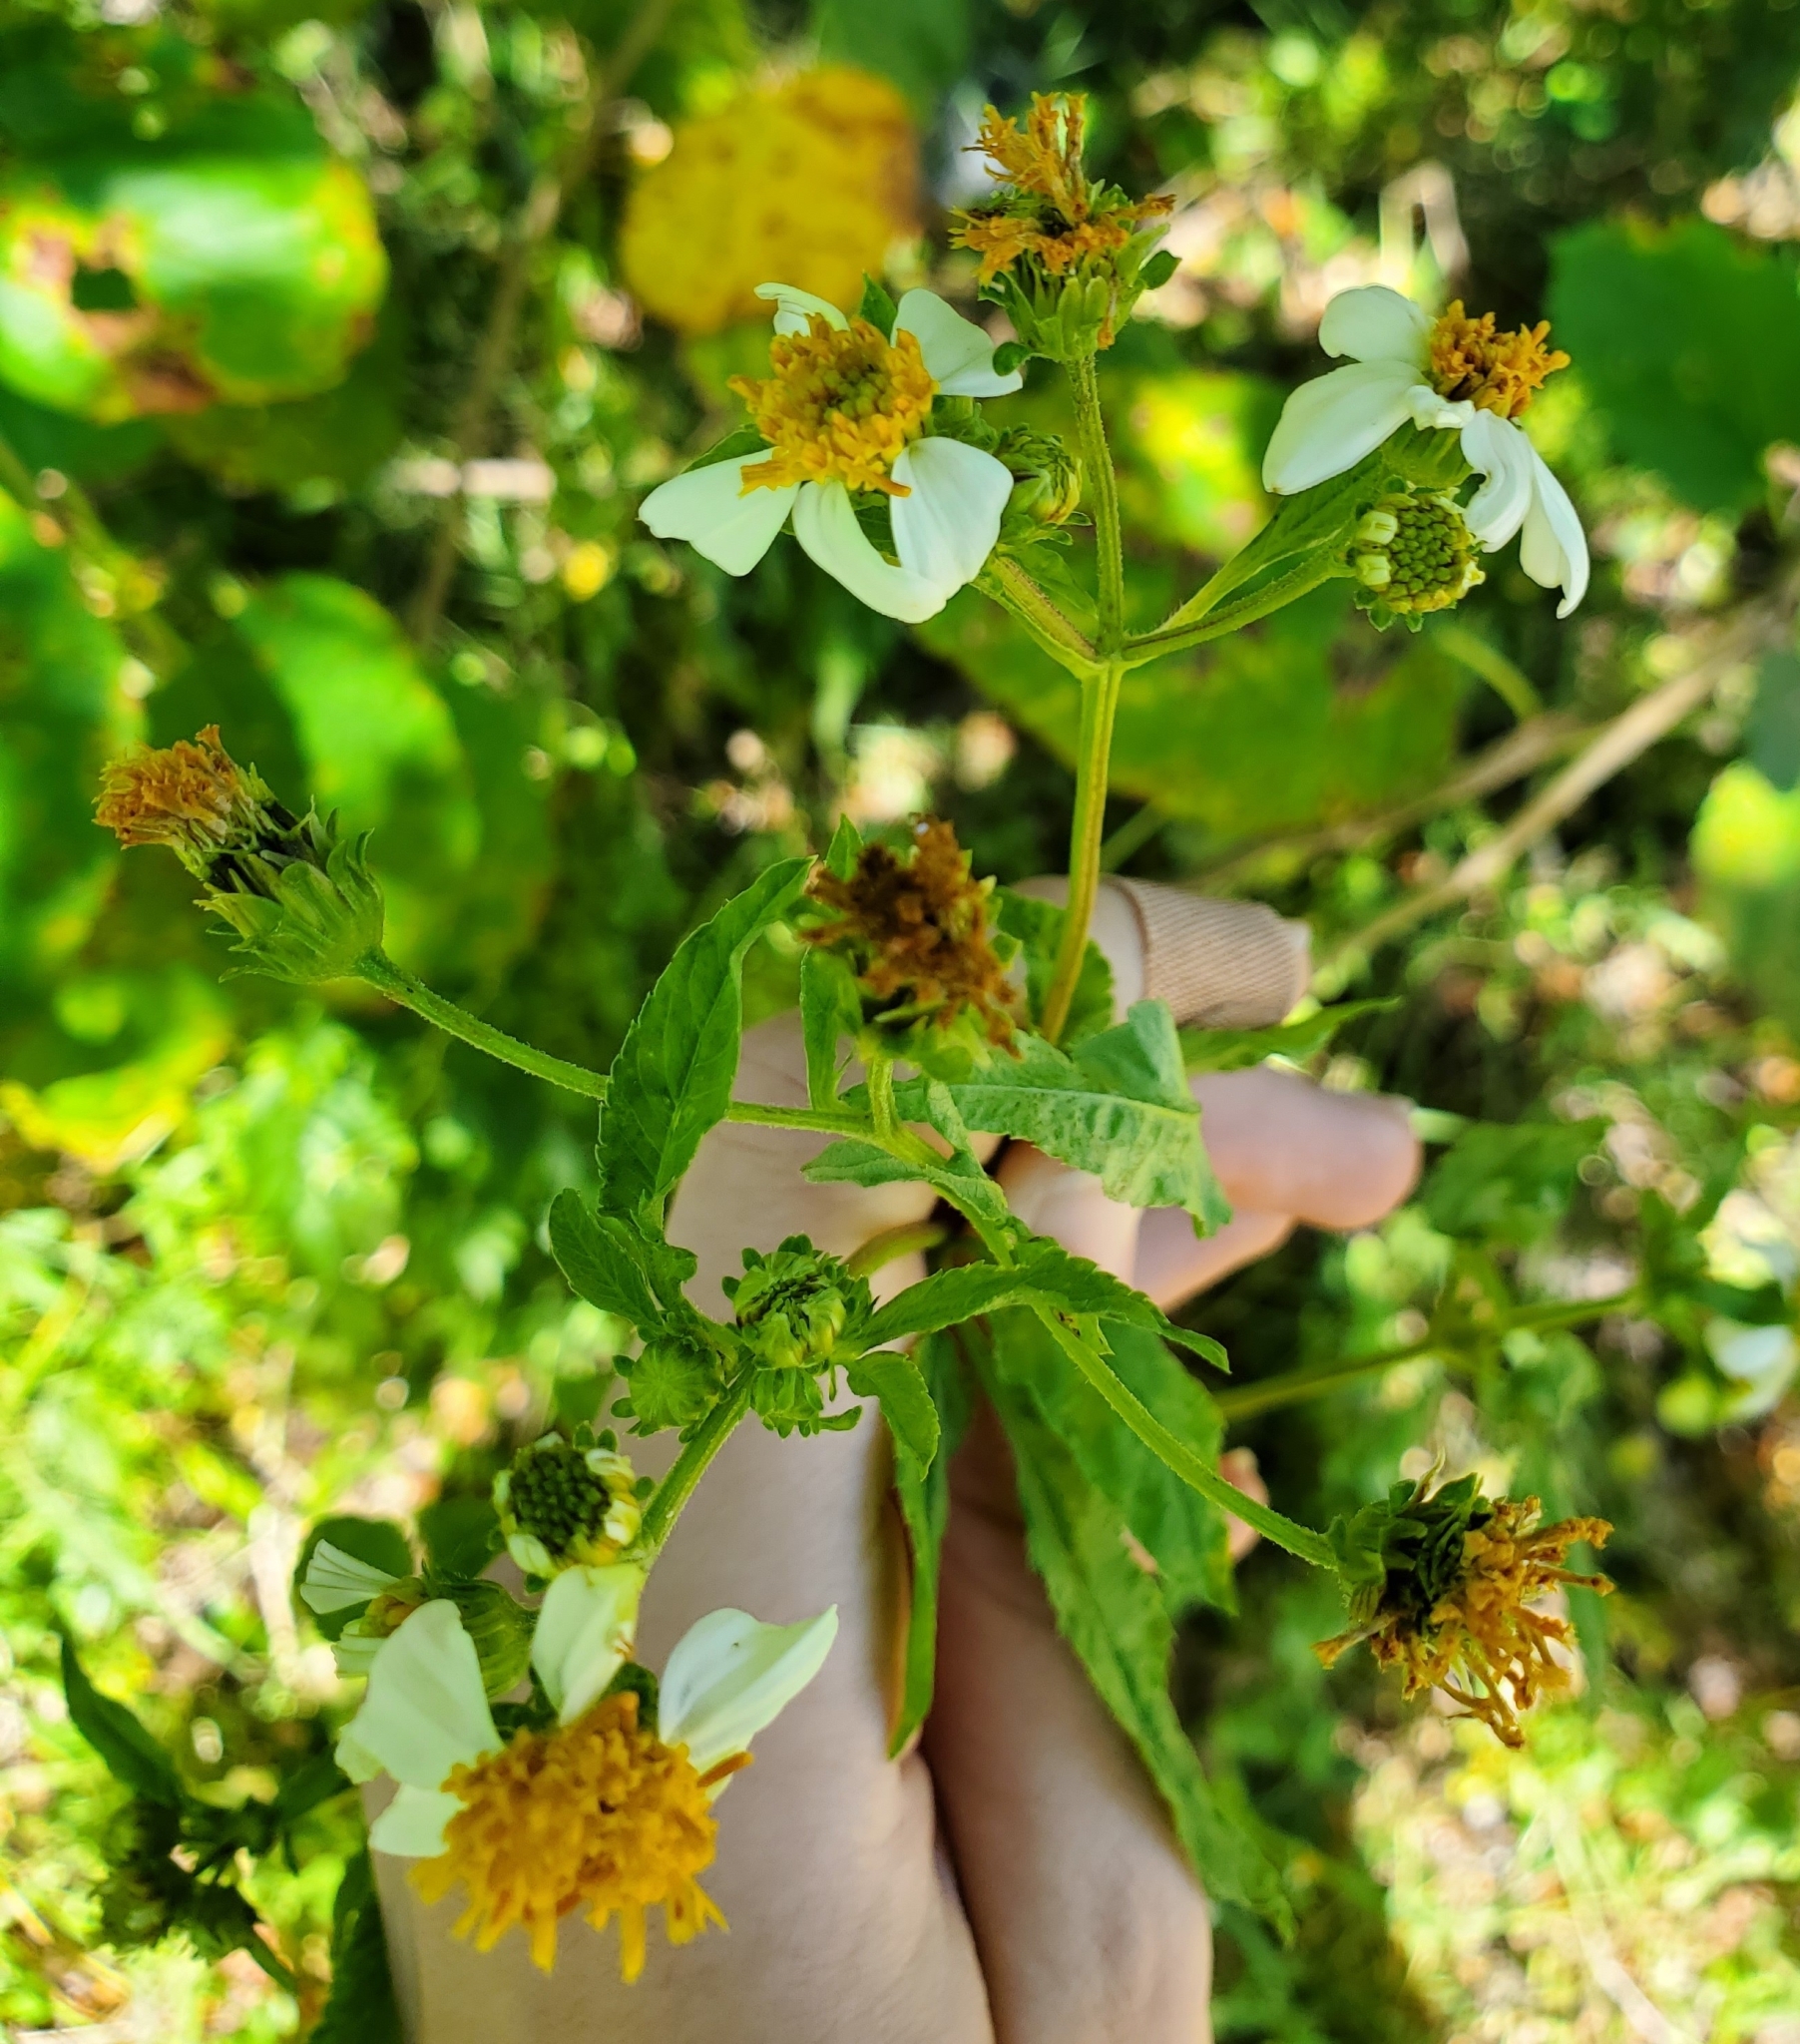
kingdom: Plantae
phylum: Tracheophyta
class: Magnoliopsida
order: Asterales
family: Asteraceae
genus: Bidens
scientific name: Bidens alba
